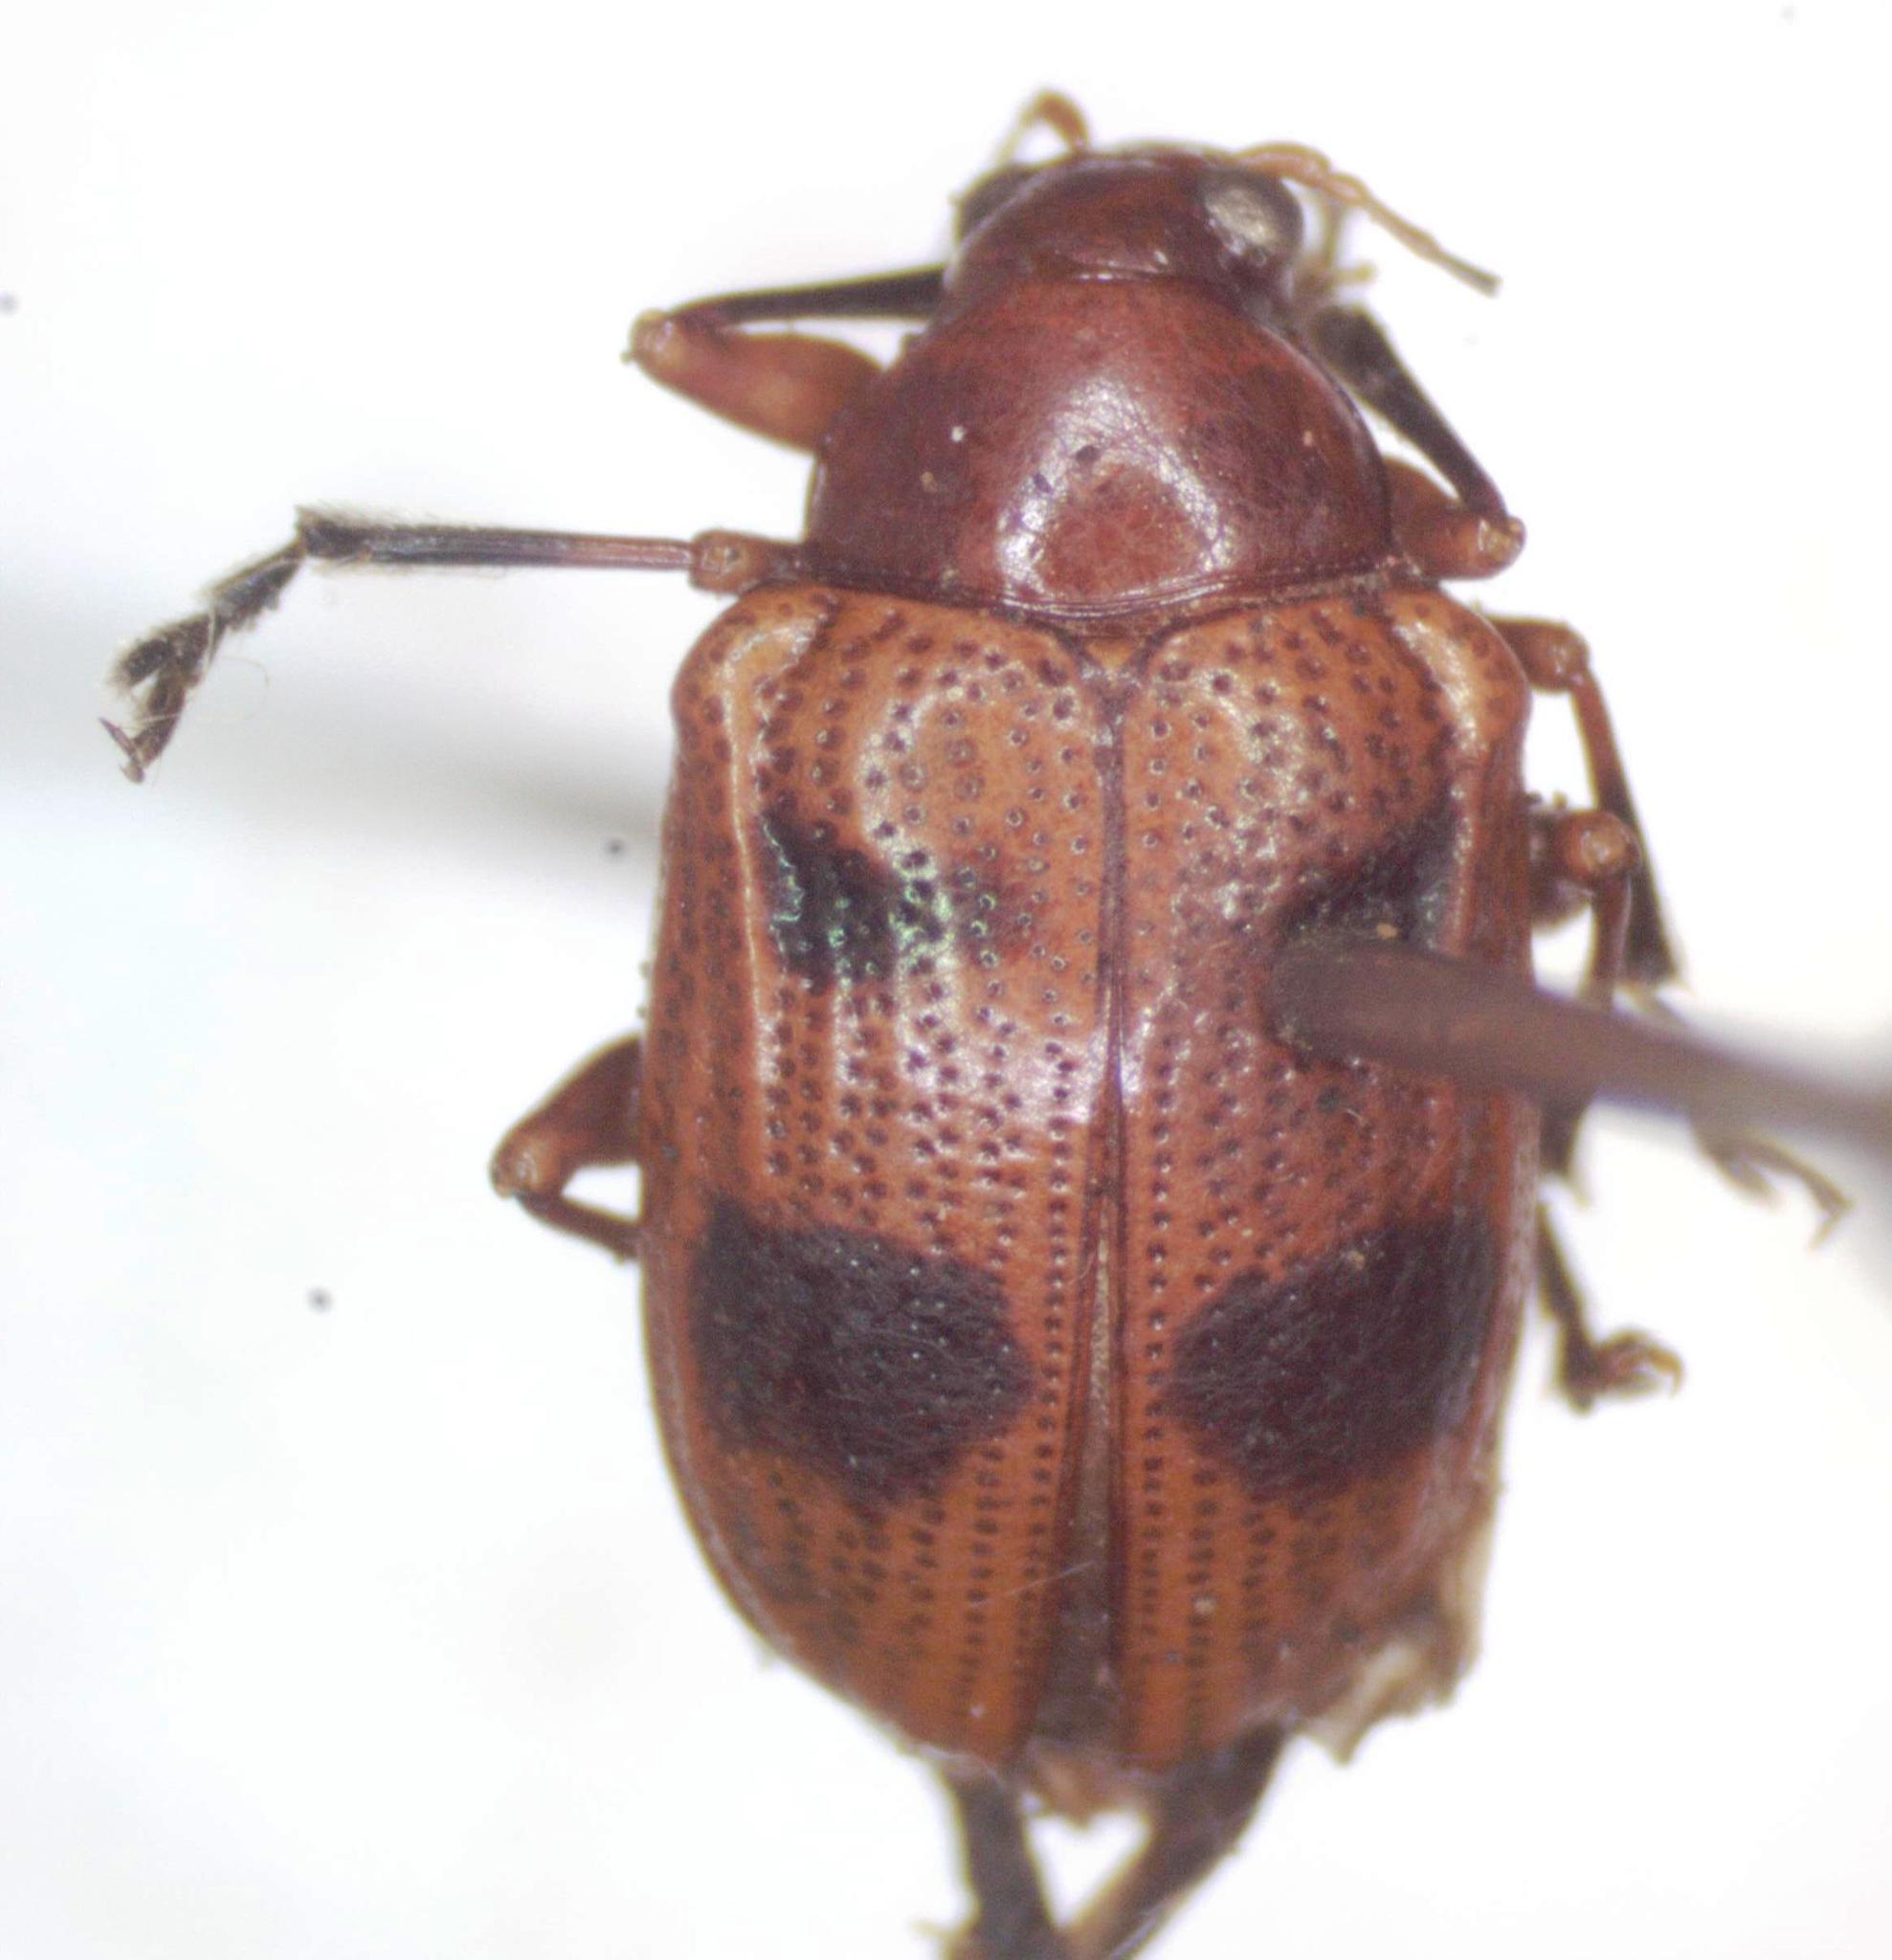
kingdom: Animalia
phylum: Arthropoda
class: Insecta
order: Coleoptera
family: Chrysomelidae
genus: Chalcophana
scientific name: Chalcophana
